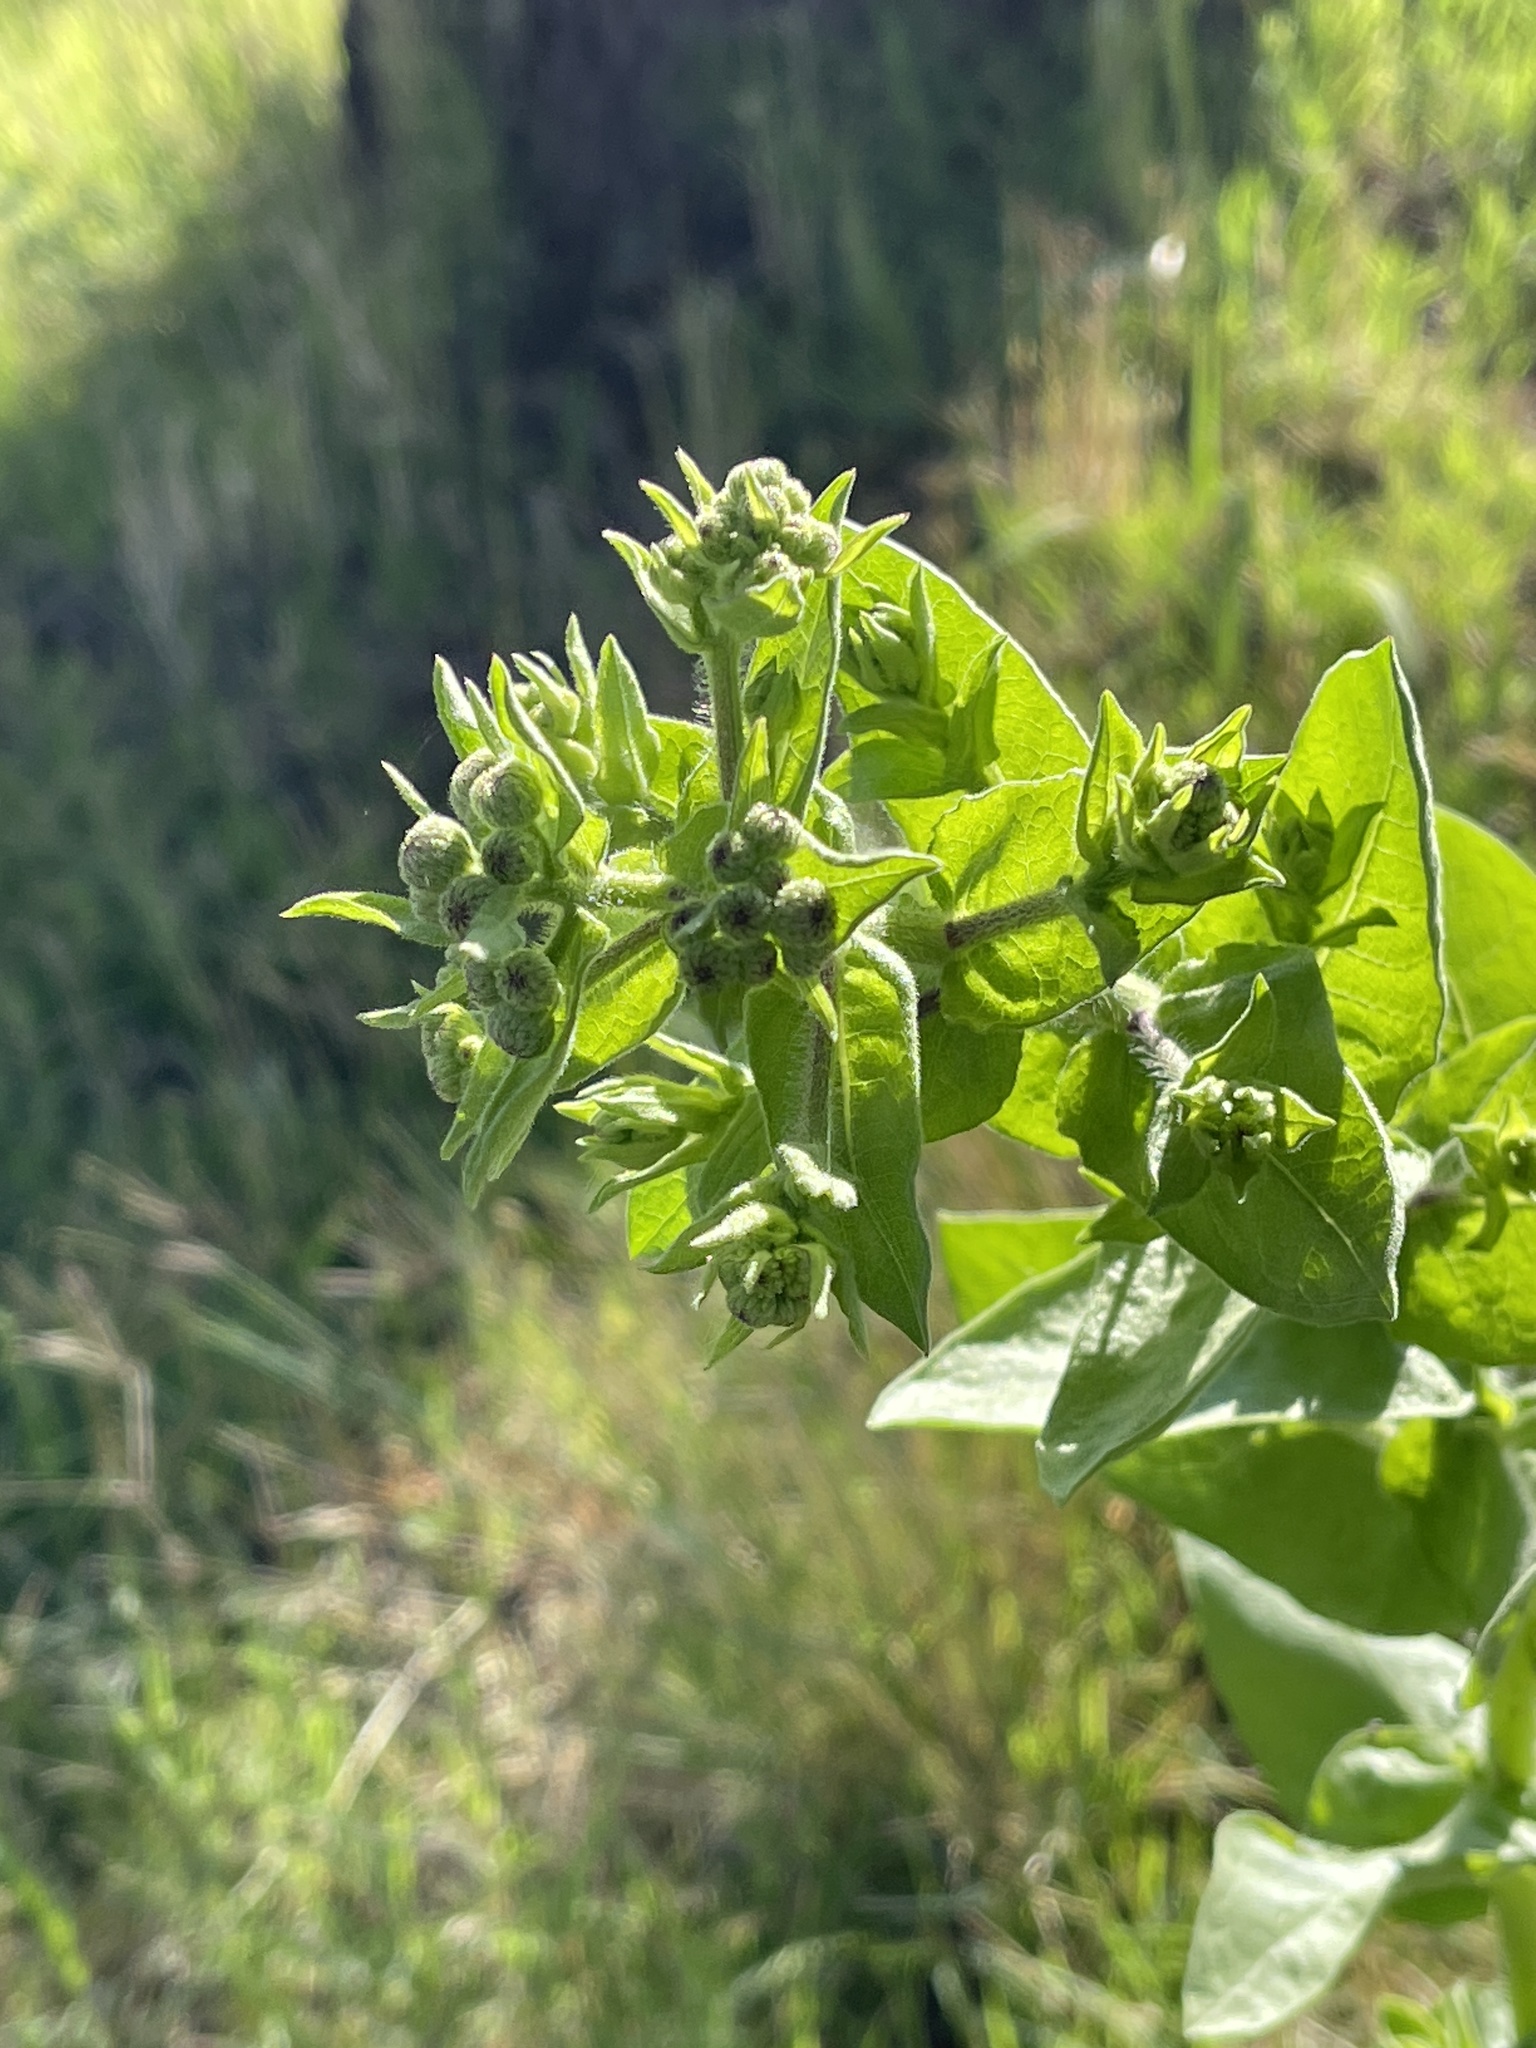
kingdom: Plantae
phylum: Tracheophyta
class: Magnoliopsida
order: Asterales
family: Asteraceae
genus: Heterotheca
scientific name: Heterotheca subaxillaris
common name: Camphorweed
